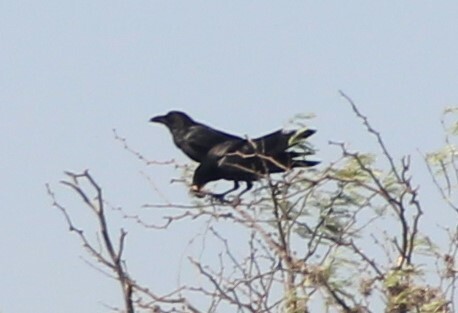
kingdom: Animalia
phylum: Chordata
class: Aves
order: Passeriformes
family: Corvidae
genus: Corvus
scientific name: Corvus corax
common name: Common raven
